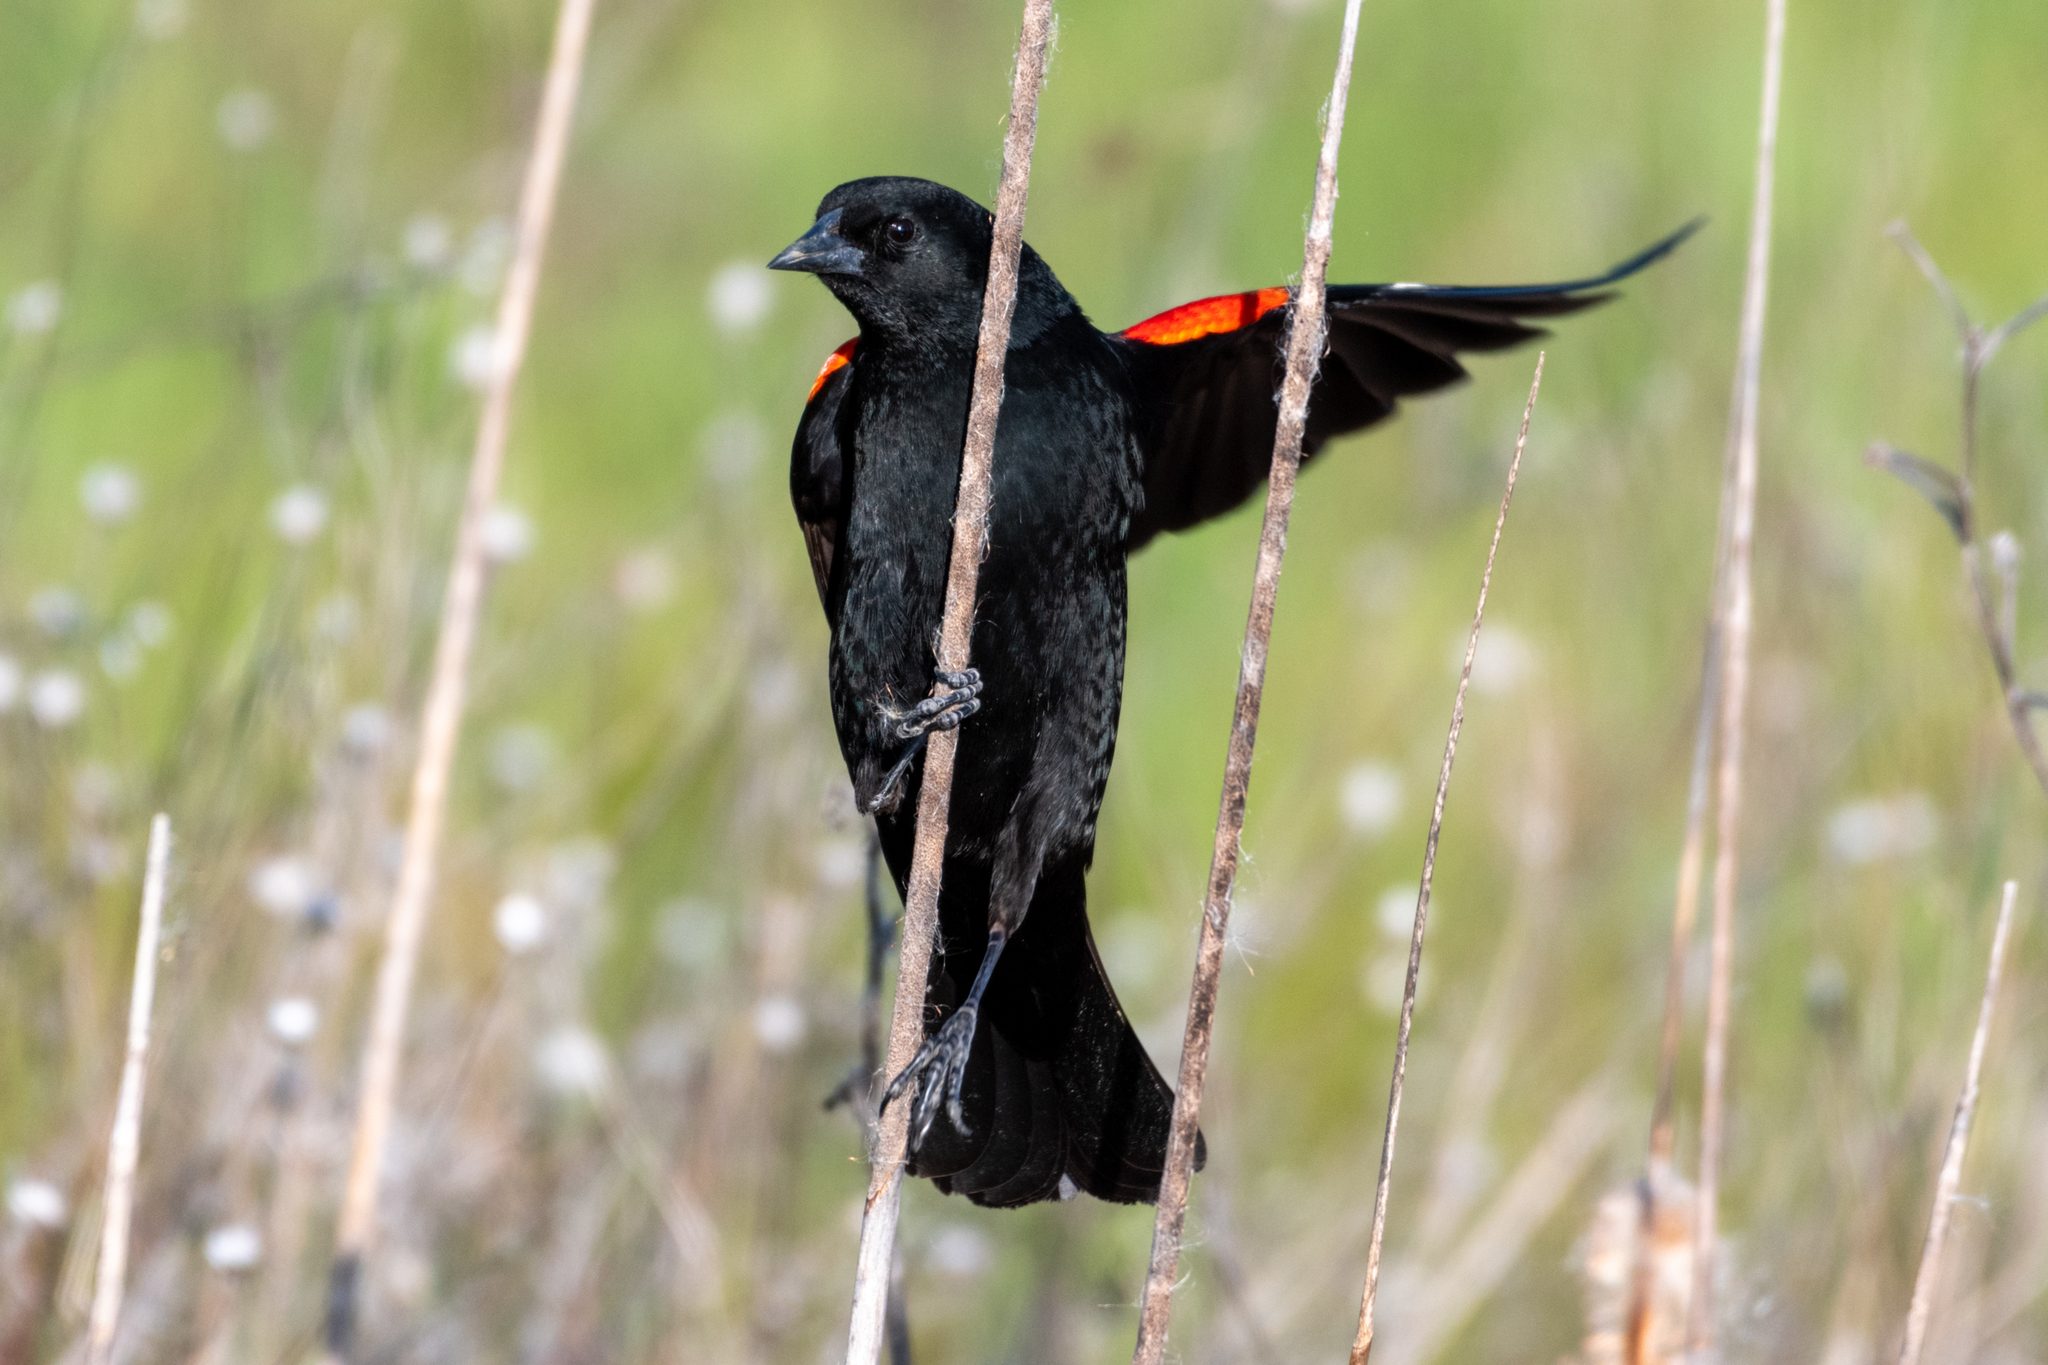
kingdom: Animalia
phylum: Chordata
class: Aves
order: Passeriformes
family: Icteridae
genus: Agelaius
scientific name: Agelaius phoeniceus
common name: Red-winged blackbird
